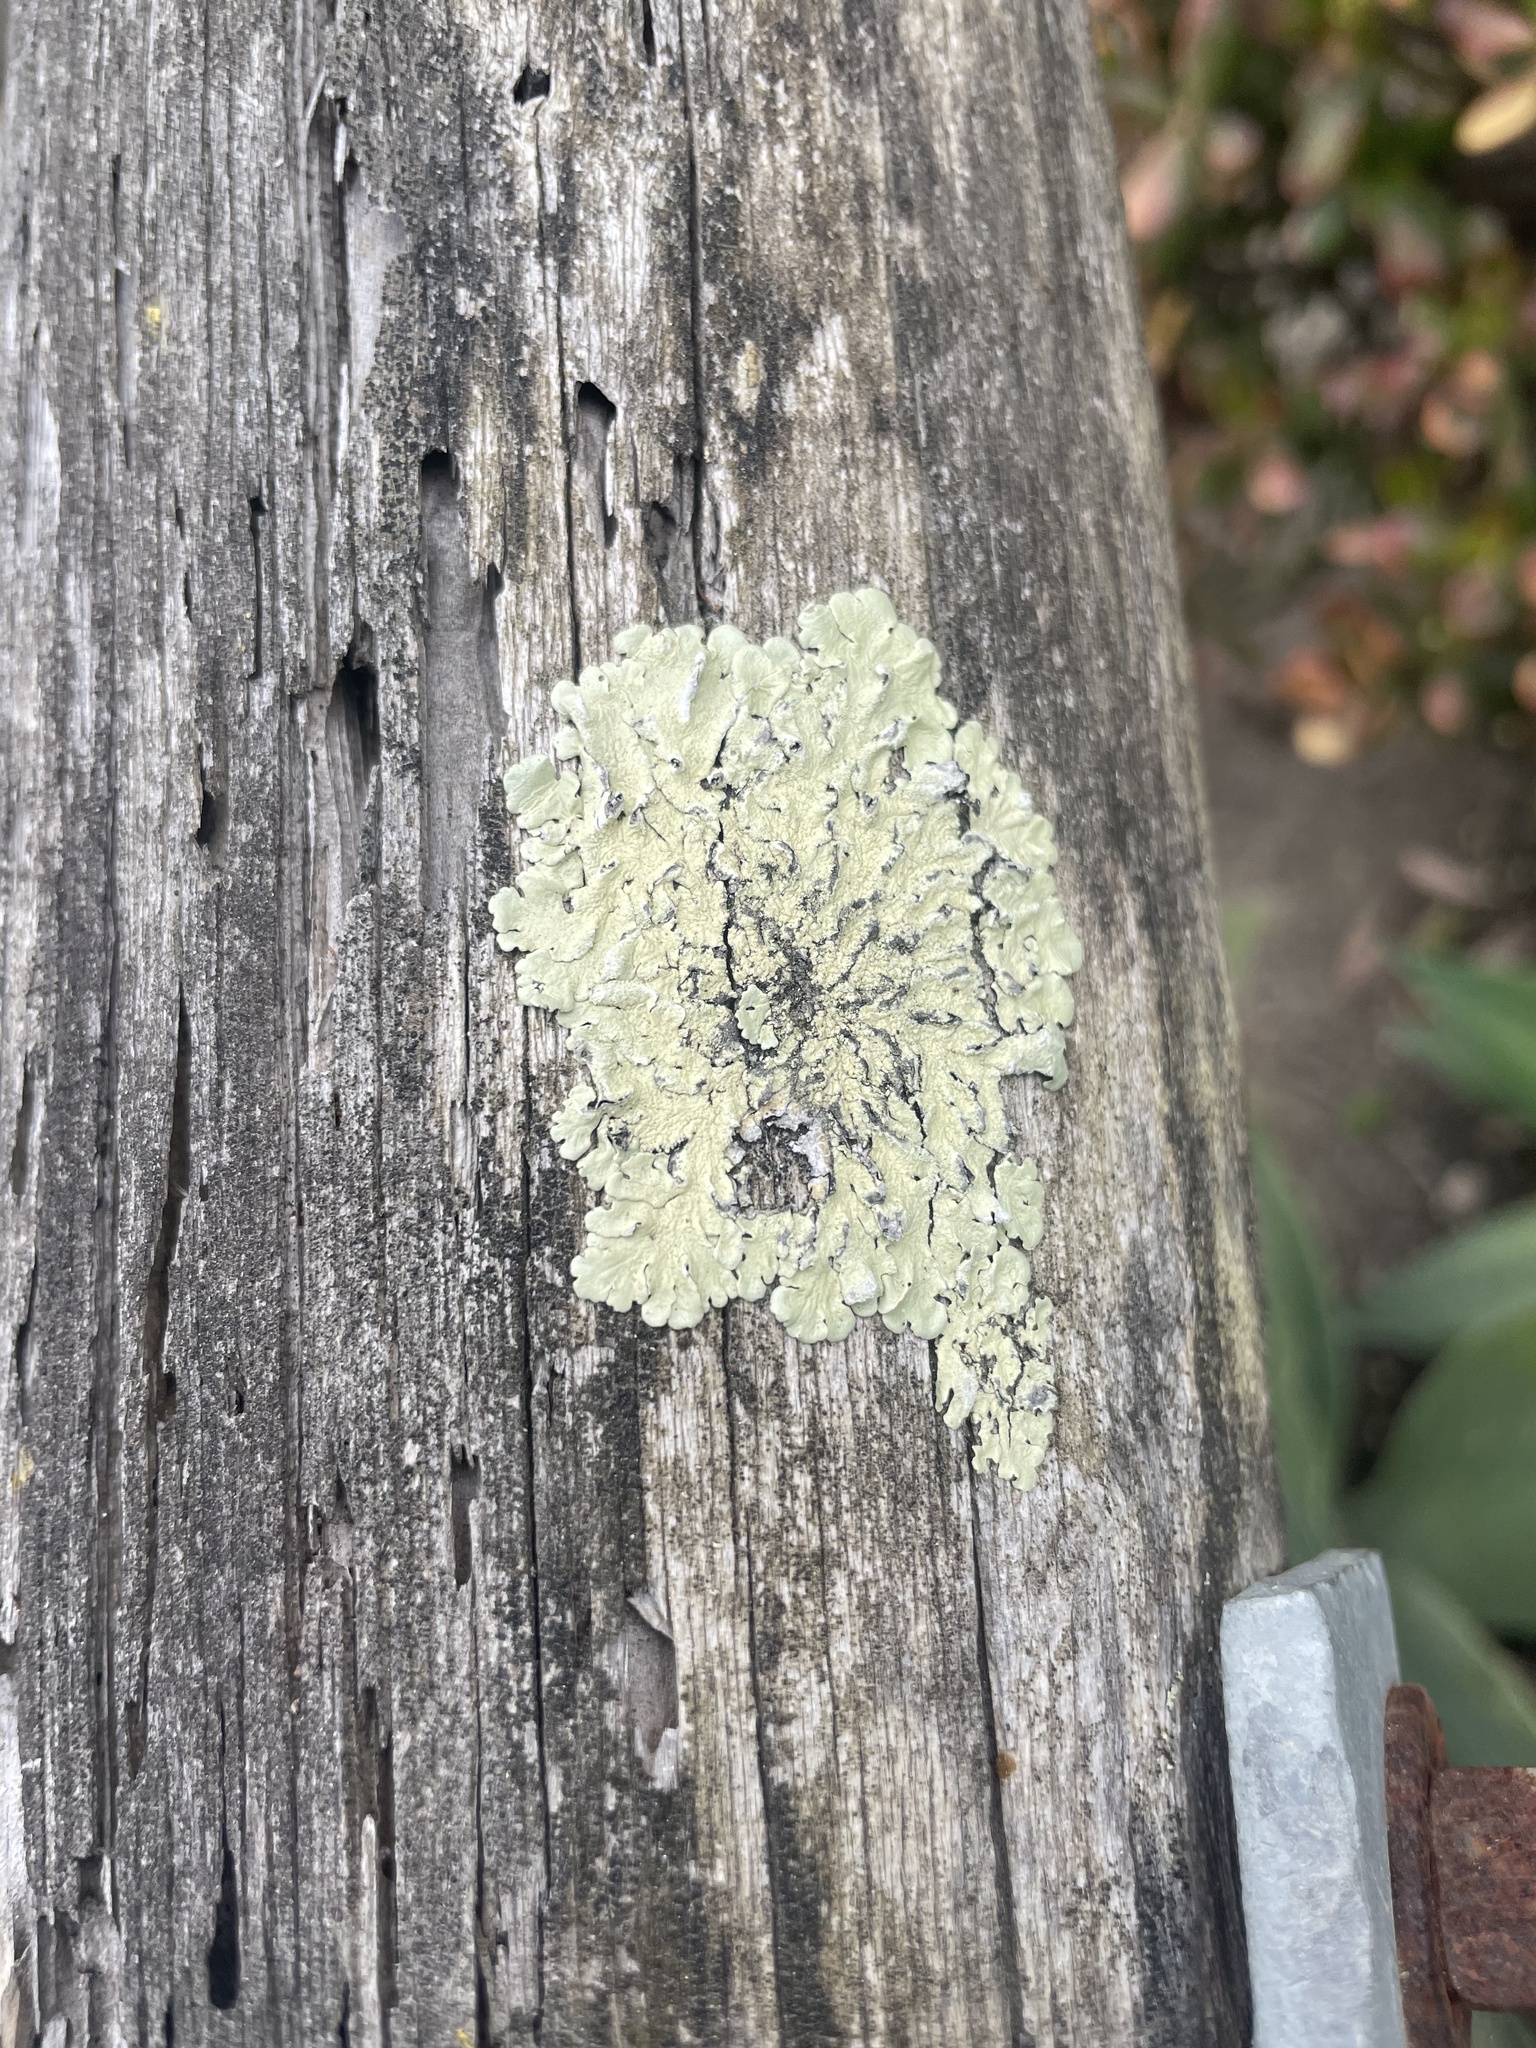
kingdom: Fungi
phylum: Ascomycota
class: Lecanoromycetes
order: Lecanorales
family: Parmeliaceae
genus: Flavoparmelia
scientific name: Flavoparmelia caperata
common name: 40-mile per hour lichen
